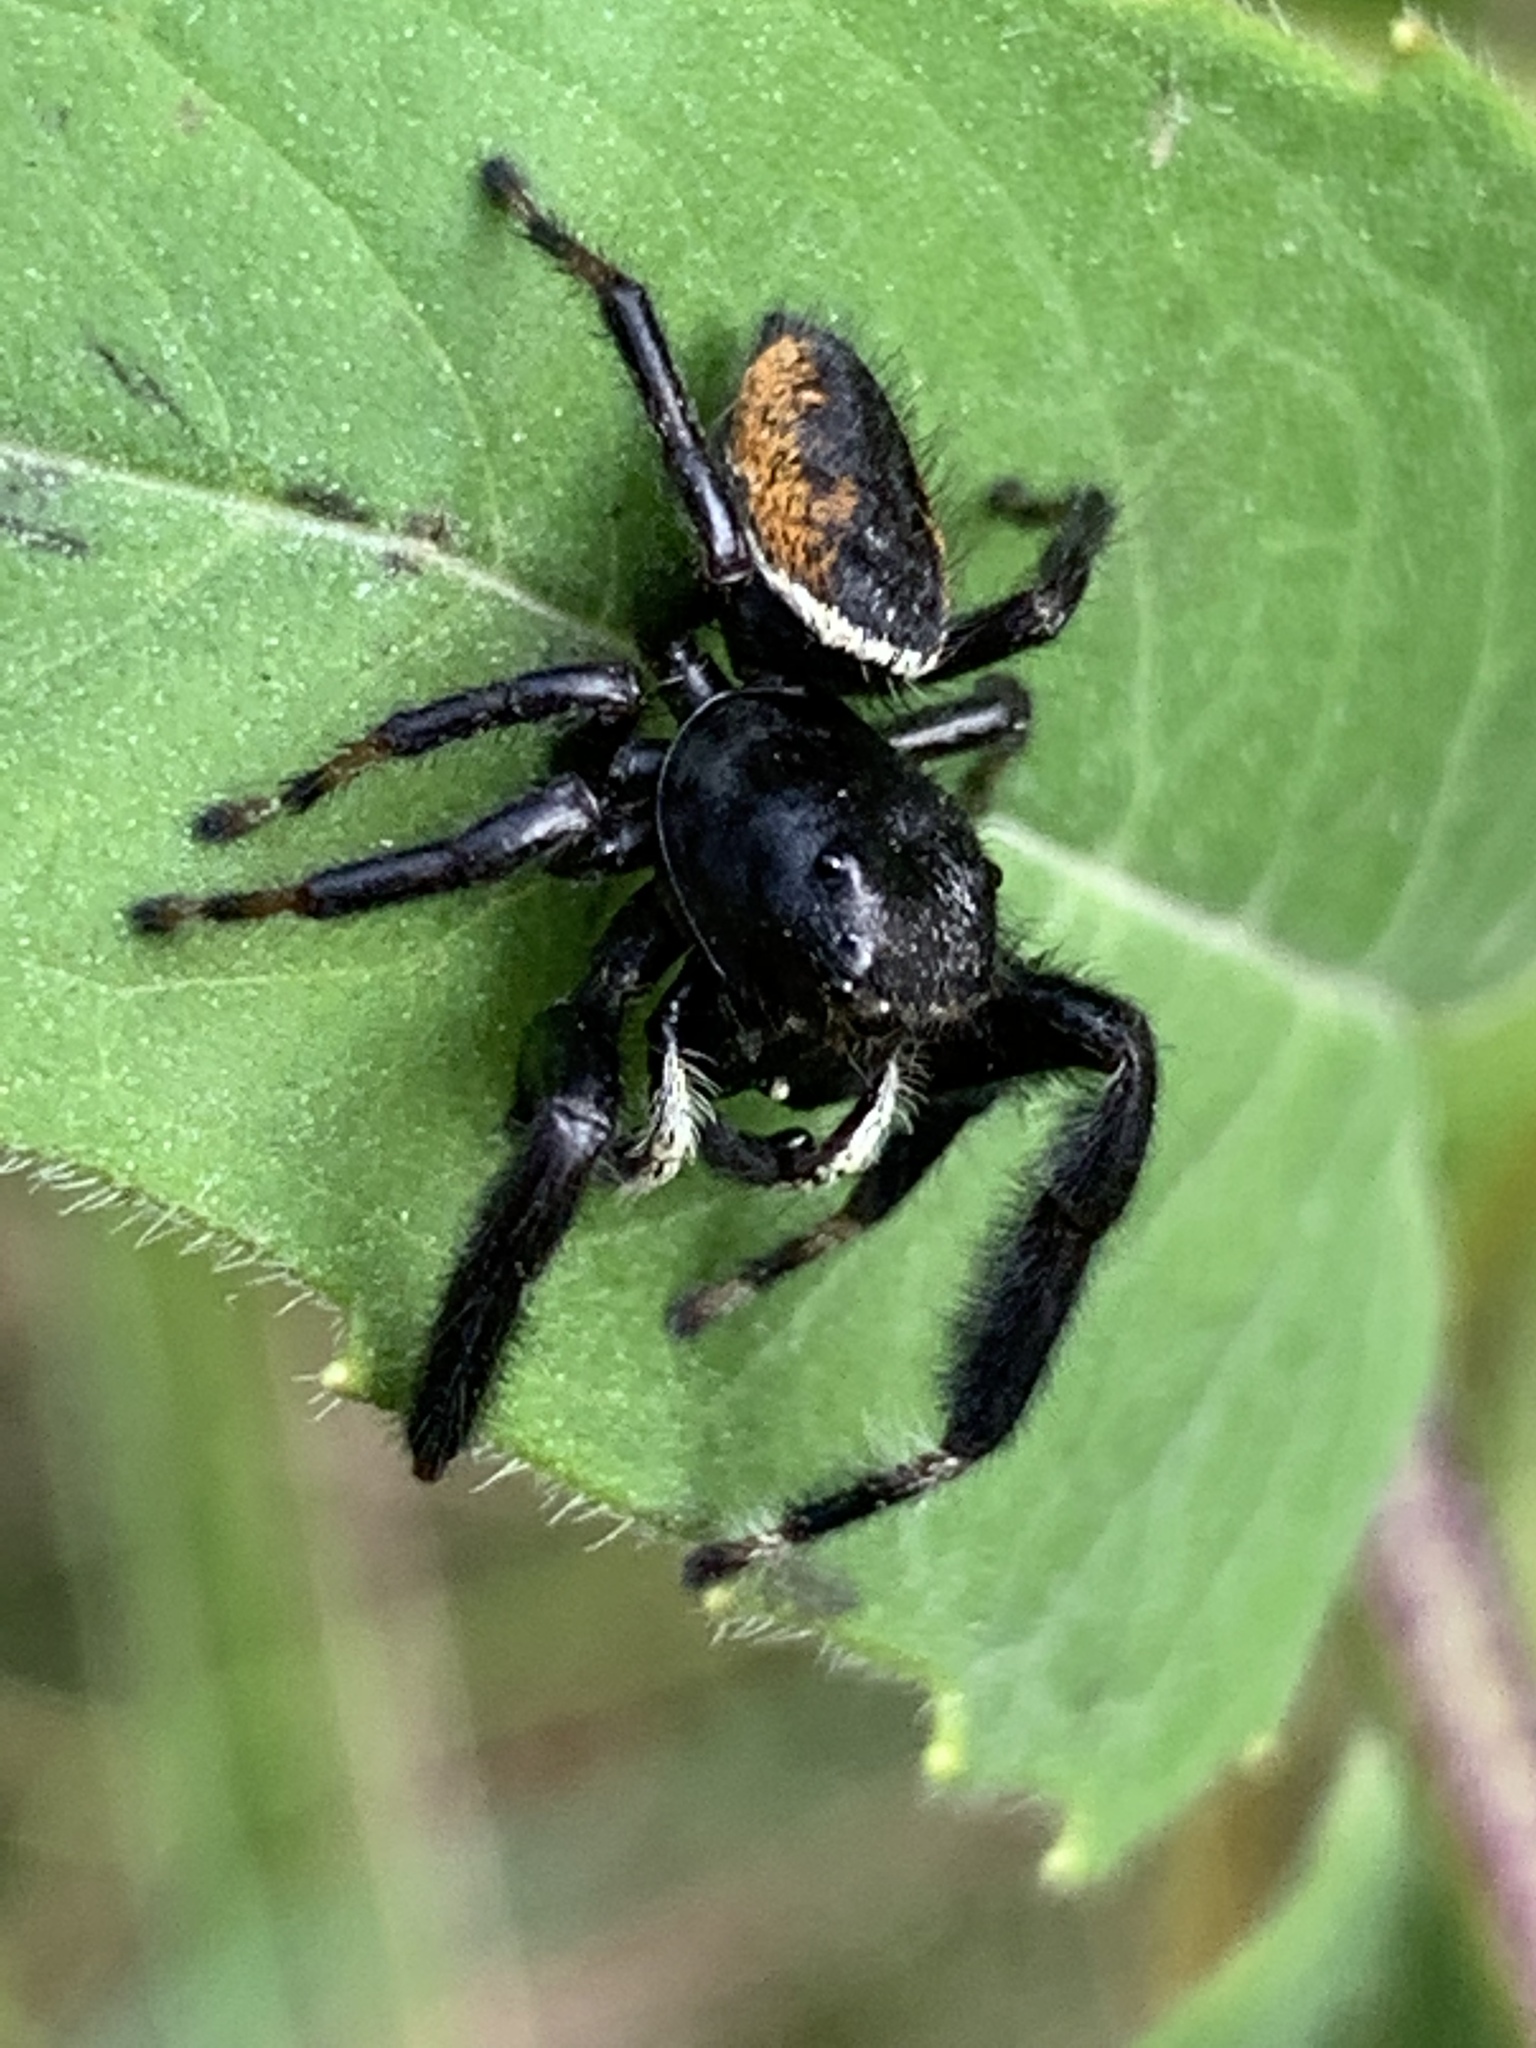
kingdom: Animalia
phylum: Arthropoda
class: Arachnida
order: Araneae
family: Salticidae
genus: Phidippus
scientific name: Phidippus clarus
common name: Brilliant jumping spider
